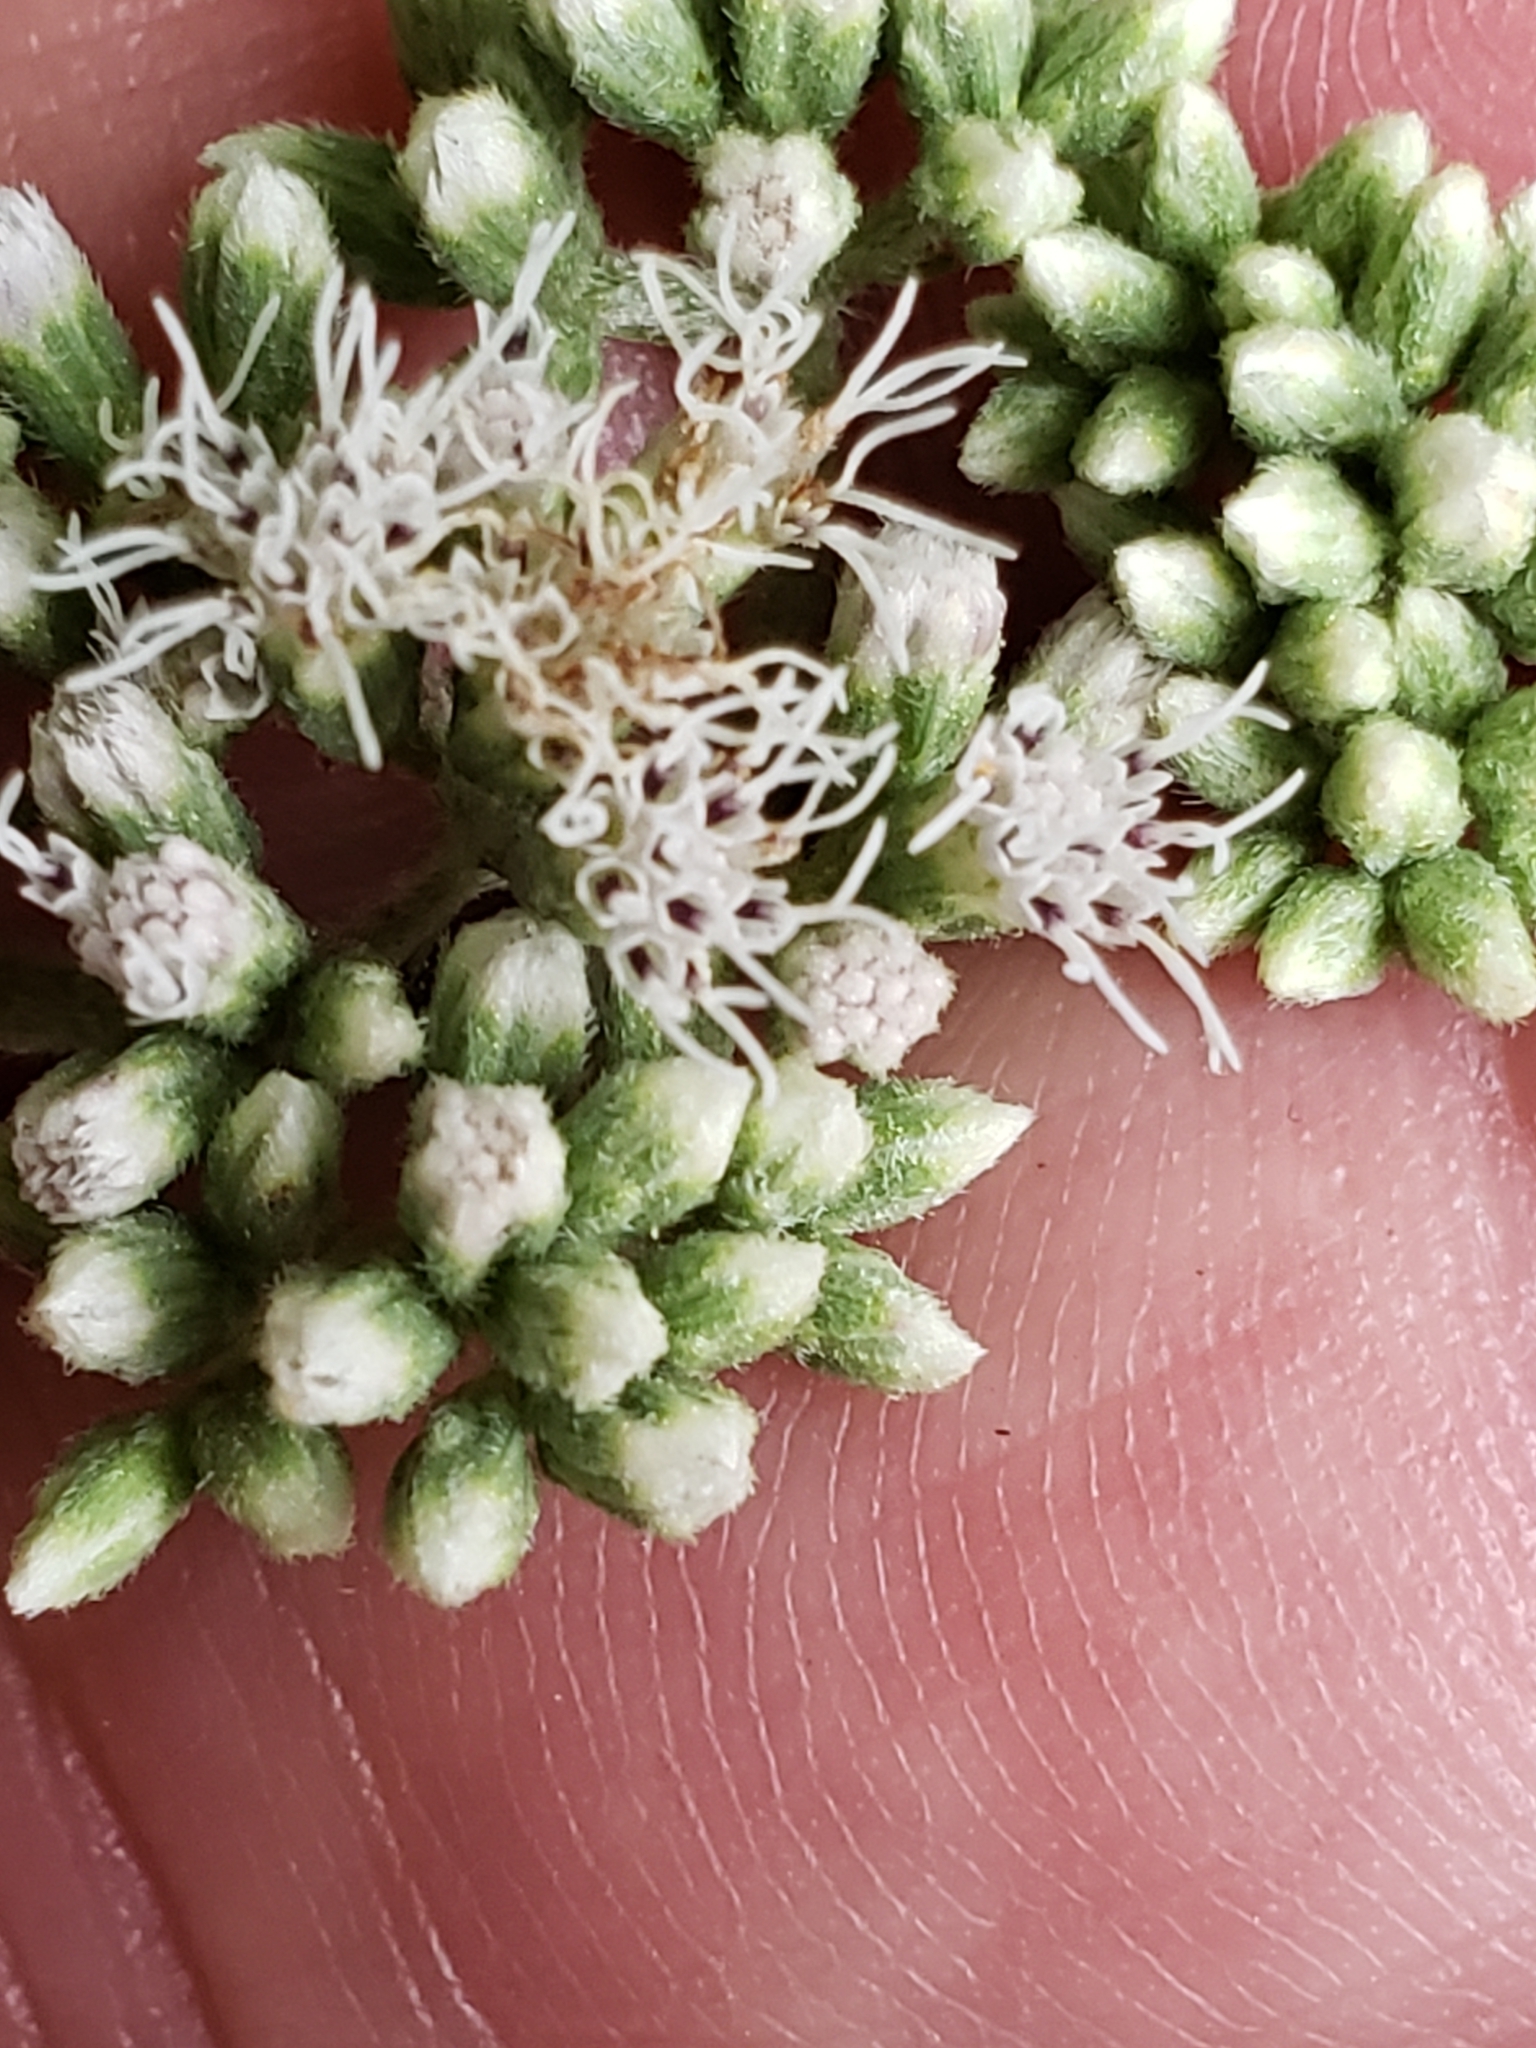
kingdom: Plantae
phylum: Tracheophyta
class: Magnoliopsida
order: Asterales
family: Asteraceae
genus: Eupatorium
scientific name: Eupatorium serotinum
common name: Late boneset
